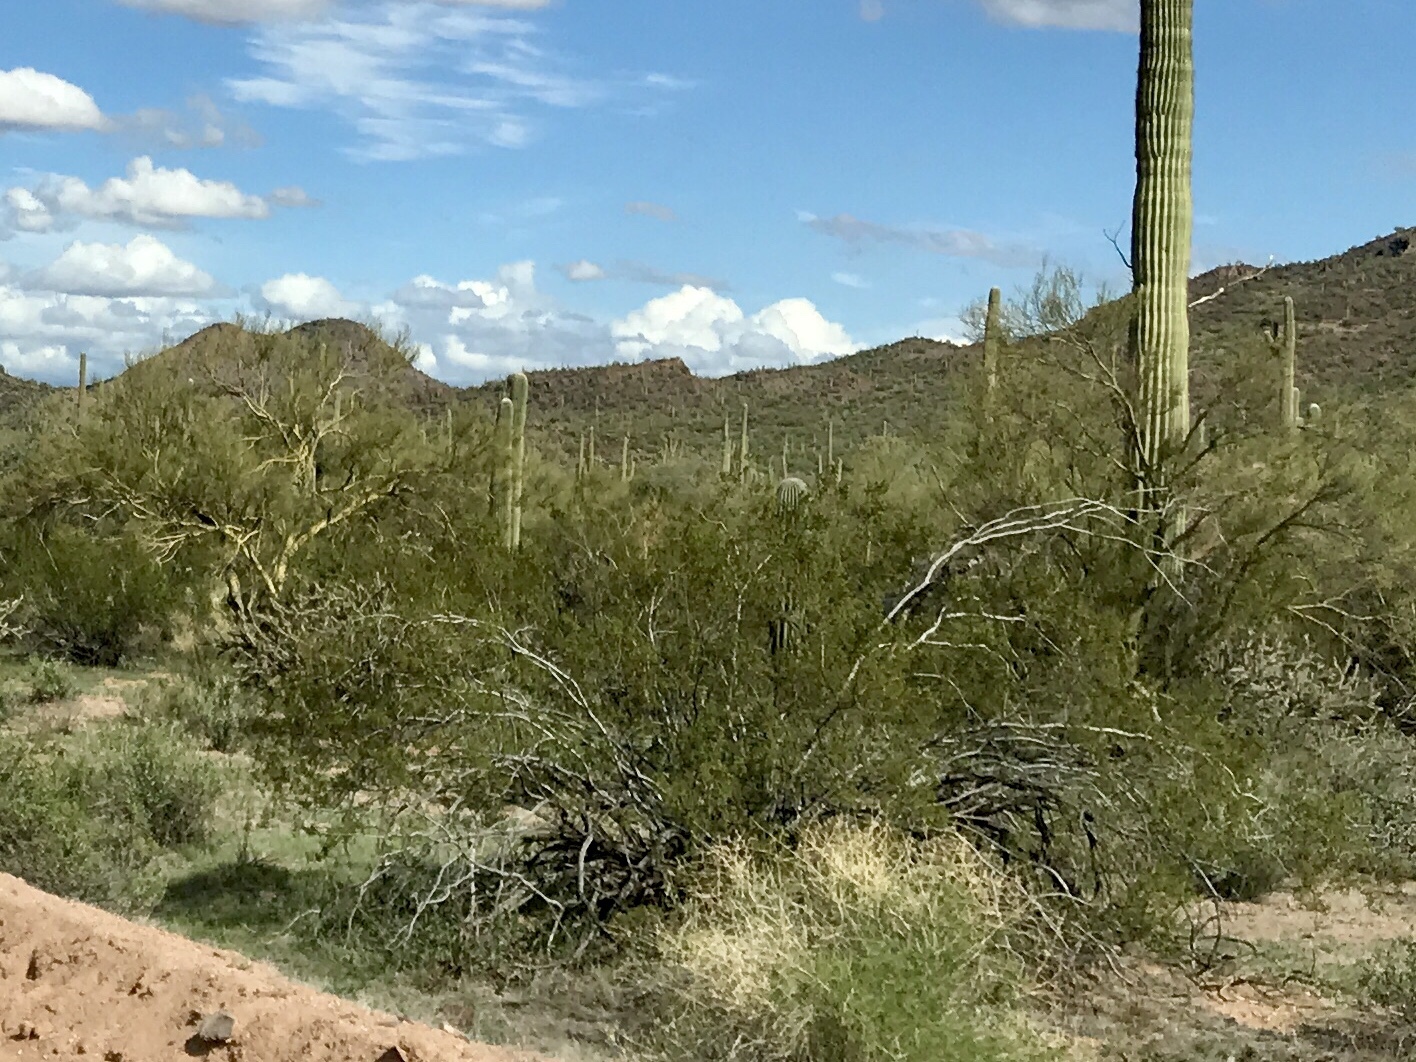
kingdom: Plantae
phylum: Tracheophyta
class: Magnoliopsida
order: Zygophyllales
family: Zygophyllaceae
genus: Larrea
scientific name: Larrea tridentata
